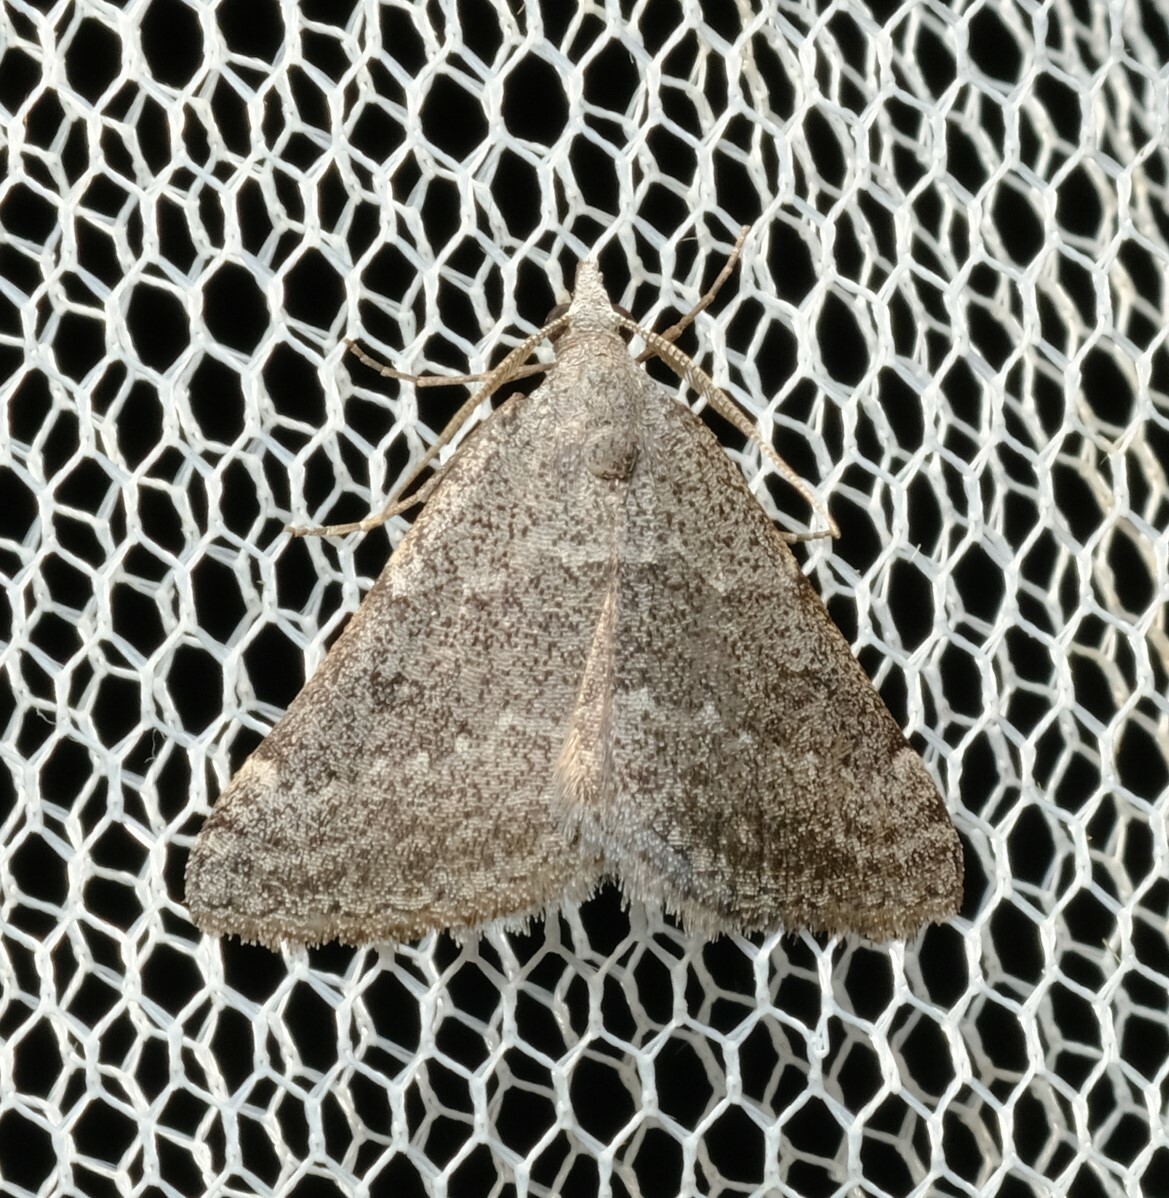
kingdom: Animalia
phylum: Arthropoda
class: Insecta
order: Lepidoptera
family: Geometridae
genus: Dichromodes
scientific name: Dichromodes indicataria
